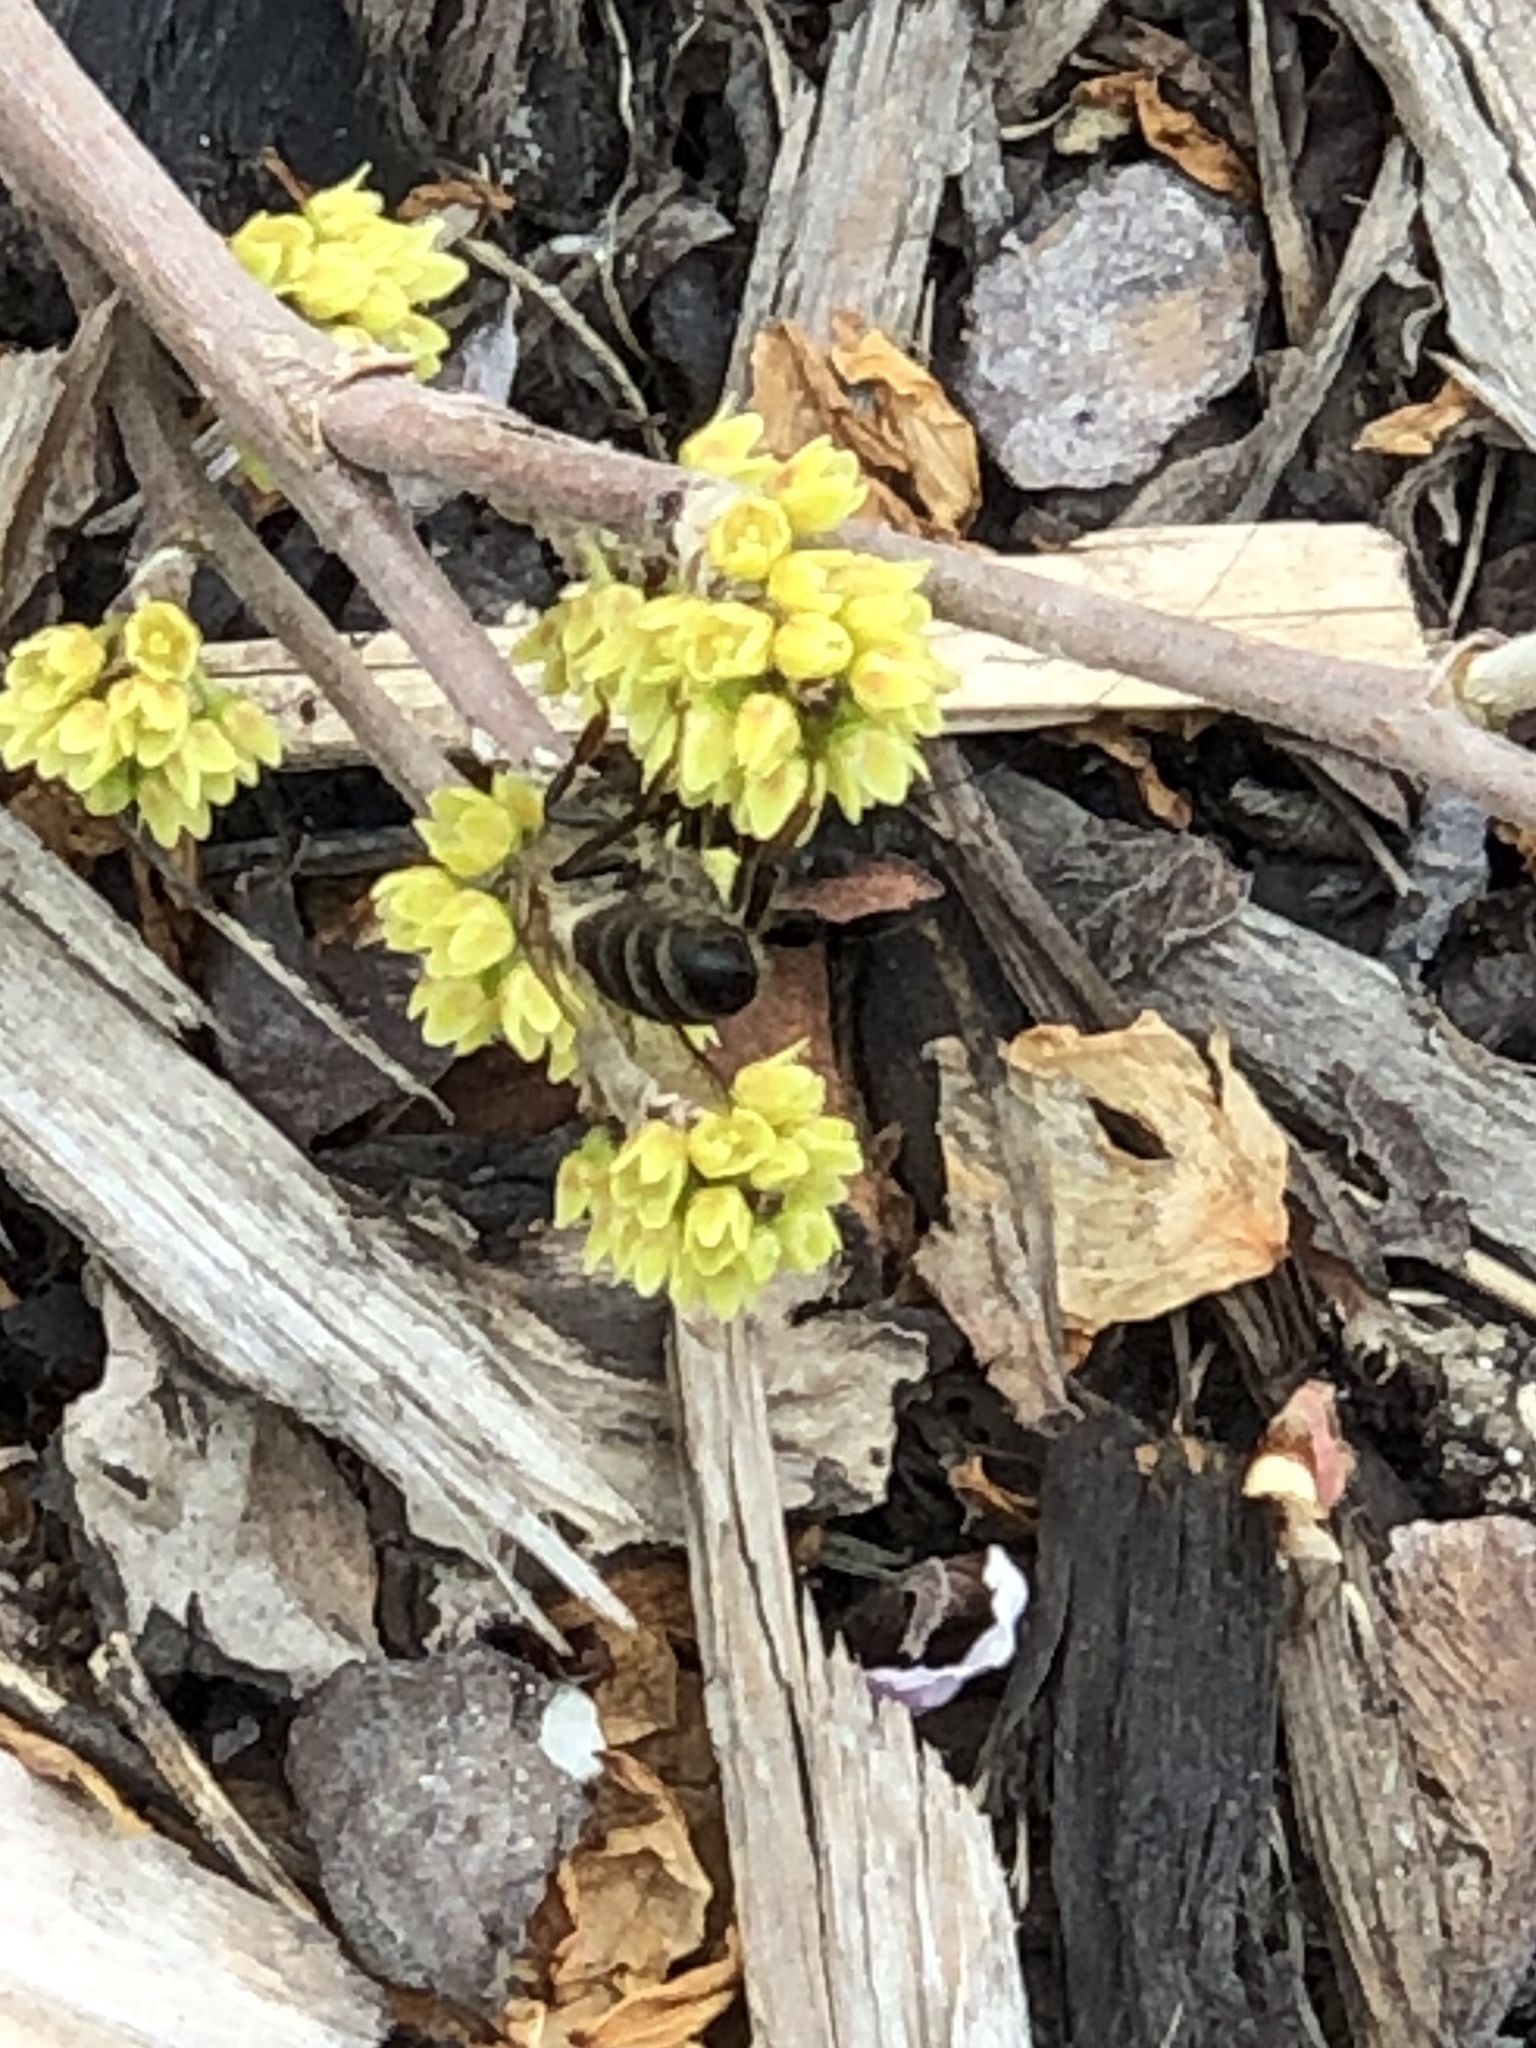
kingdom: Animalia
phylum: Arthropoda
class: Insecta
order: Hymenoptera
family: Apidae
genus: Apis
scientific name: Apis mellifera
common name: Honey bee
